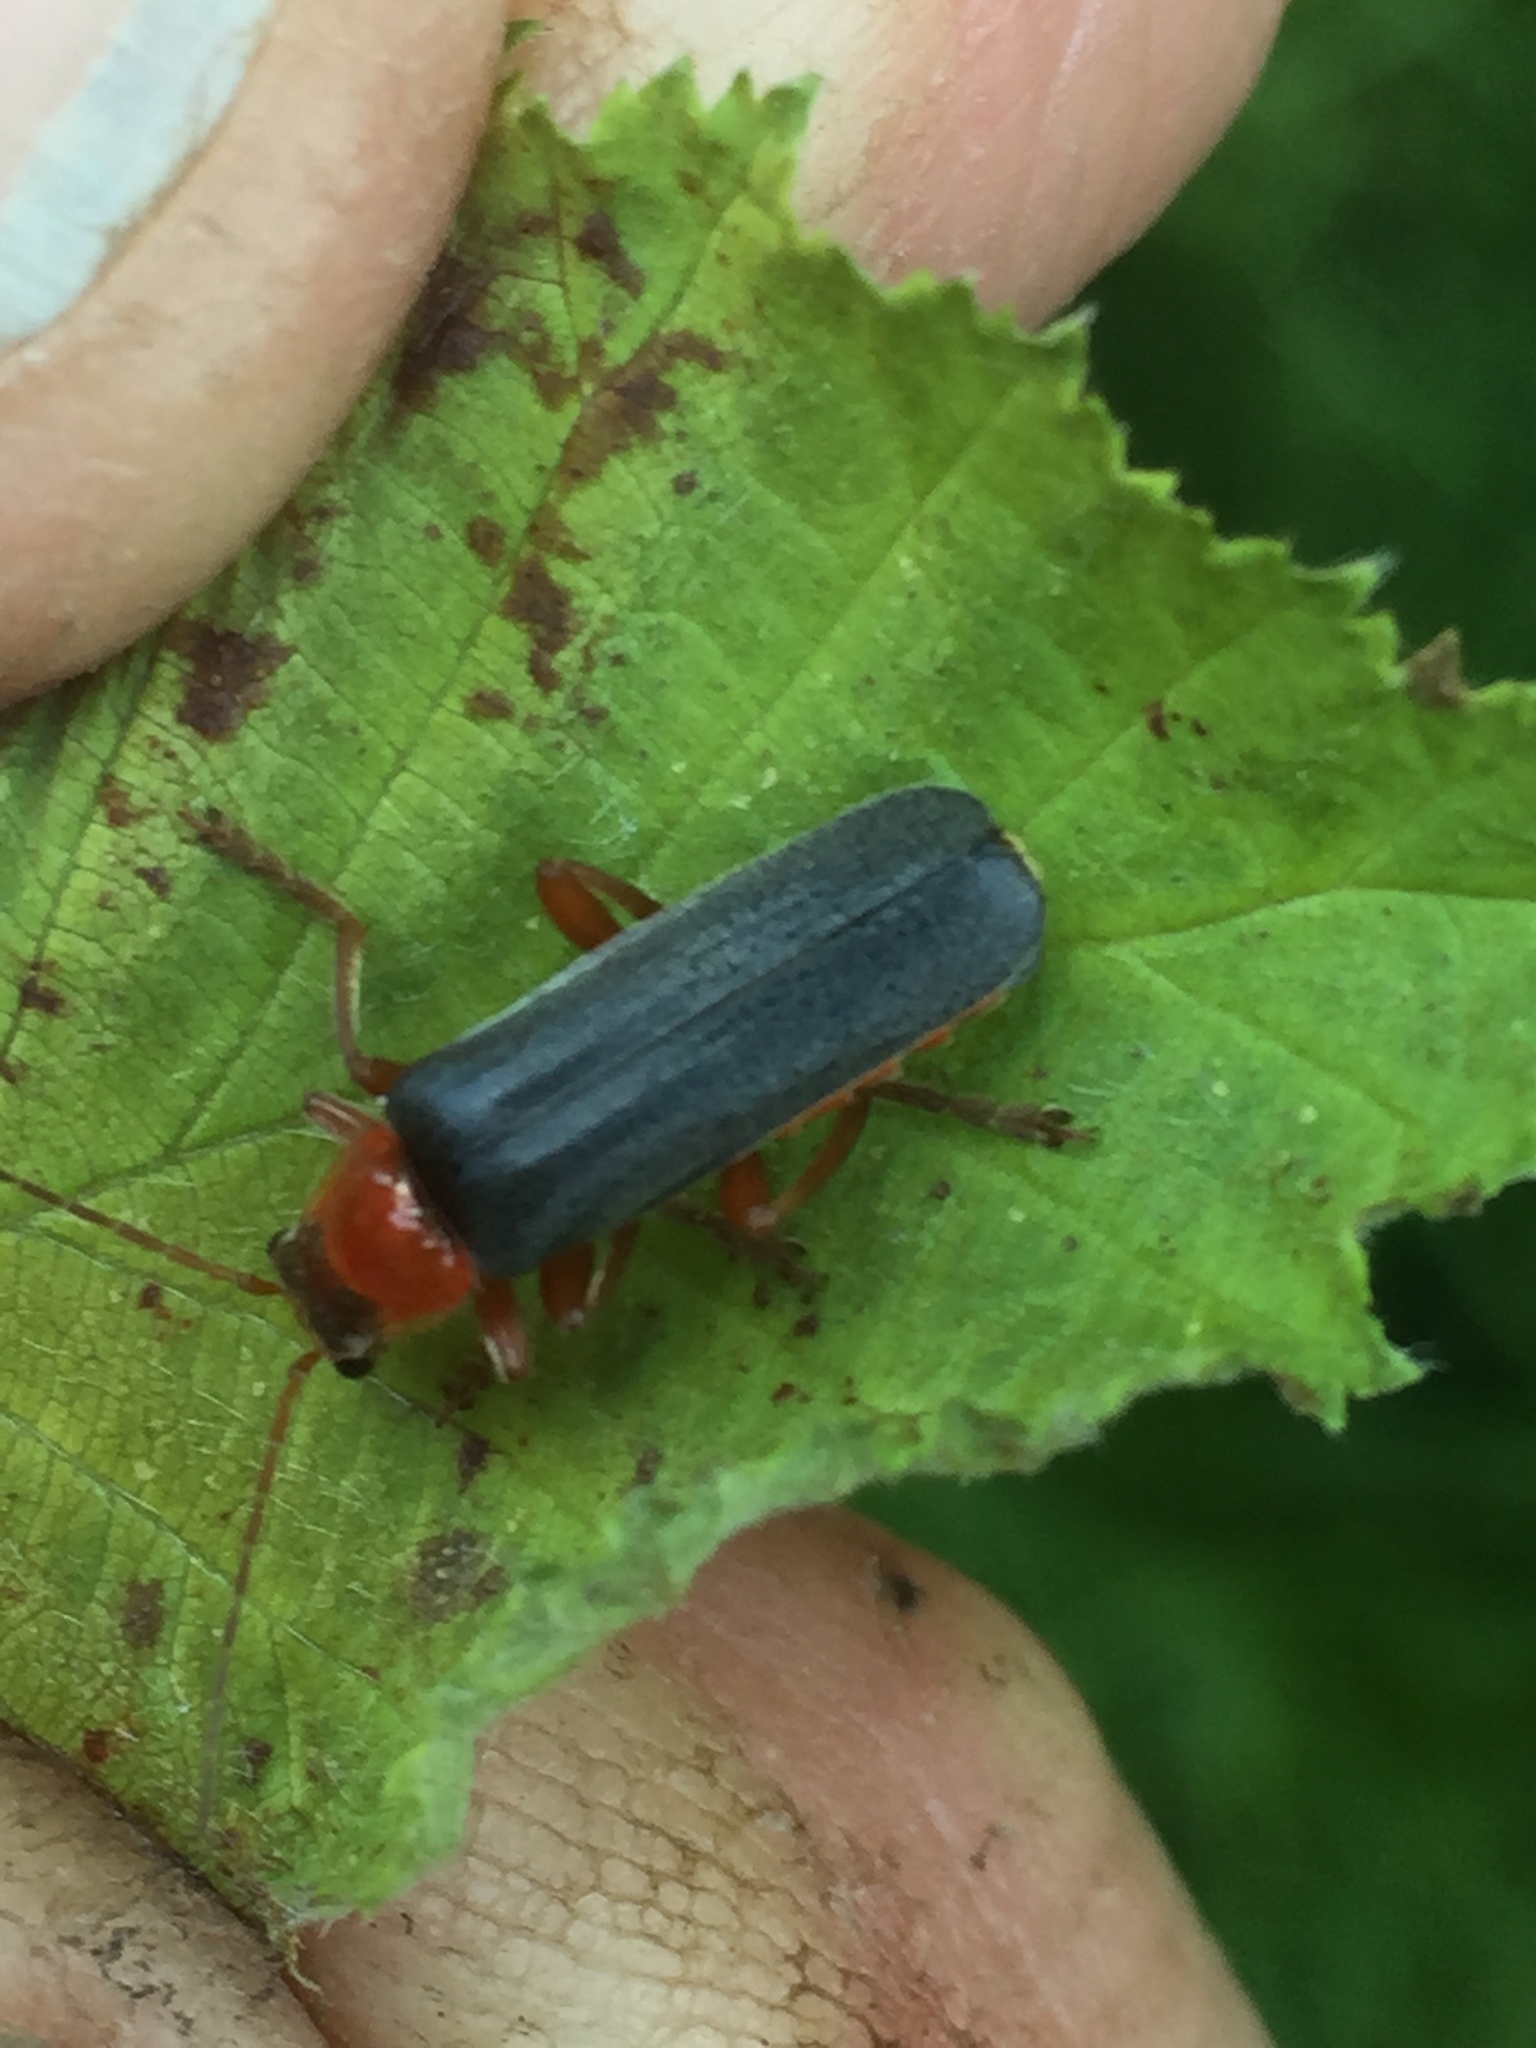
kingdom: Animalia
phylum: Arthropoda
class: Insecta
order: Coleoptera
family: Cantharidae
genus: Cantharis
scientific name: Cantharis pellucida
